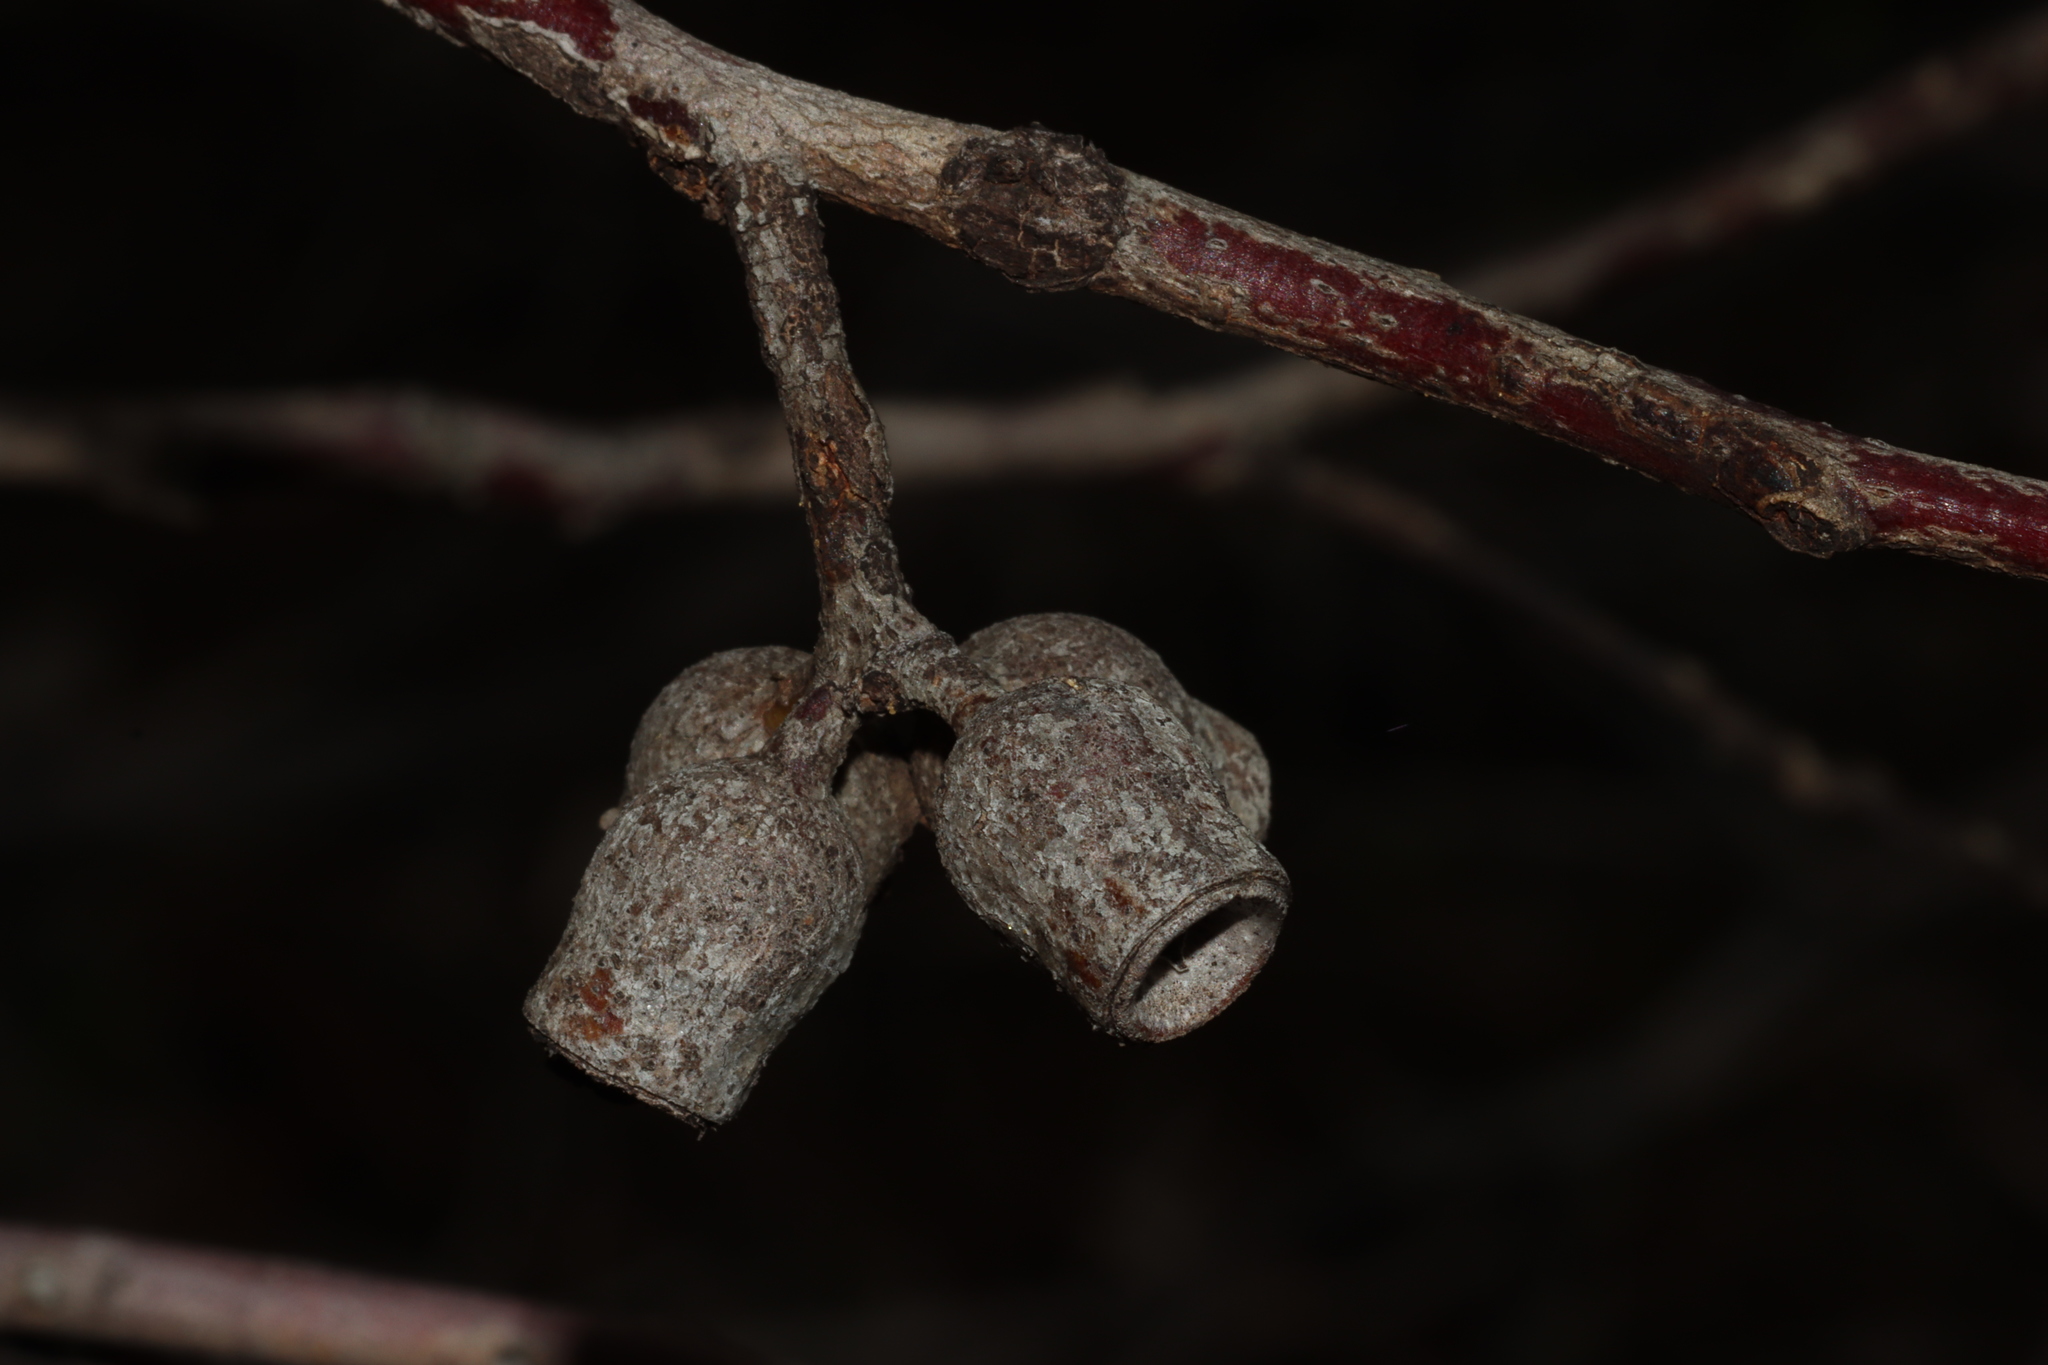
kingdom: Plantae
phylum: Tracheophyta
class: Magnoliopsida
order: Myrtales
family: Myrtaceae
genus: Eucalyptus
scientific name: Eucalyptus incrassata
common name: Ridge-fruit mallee
